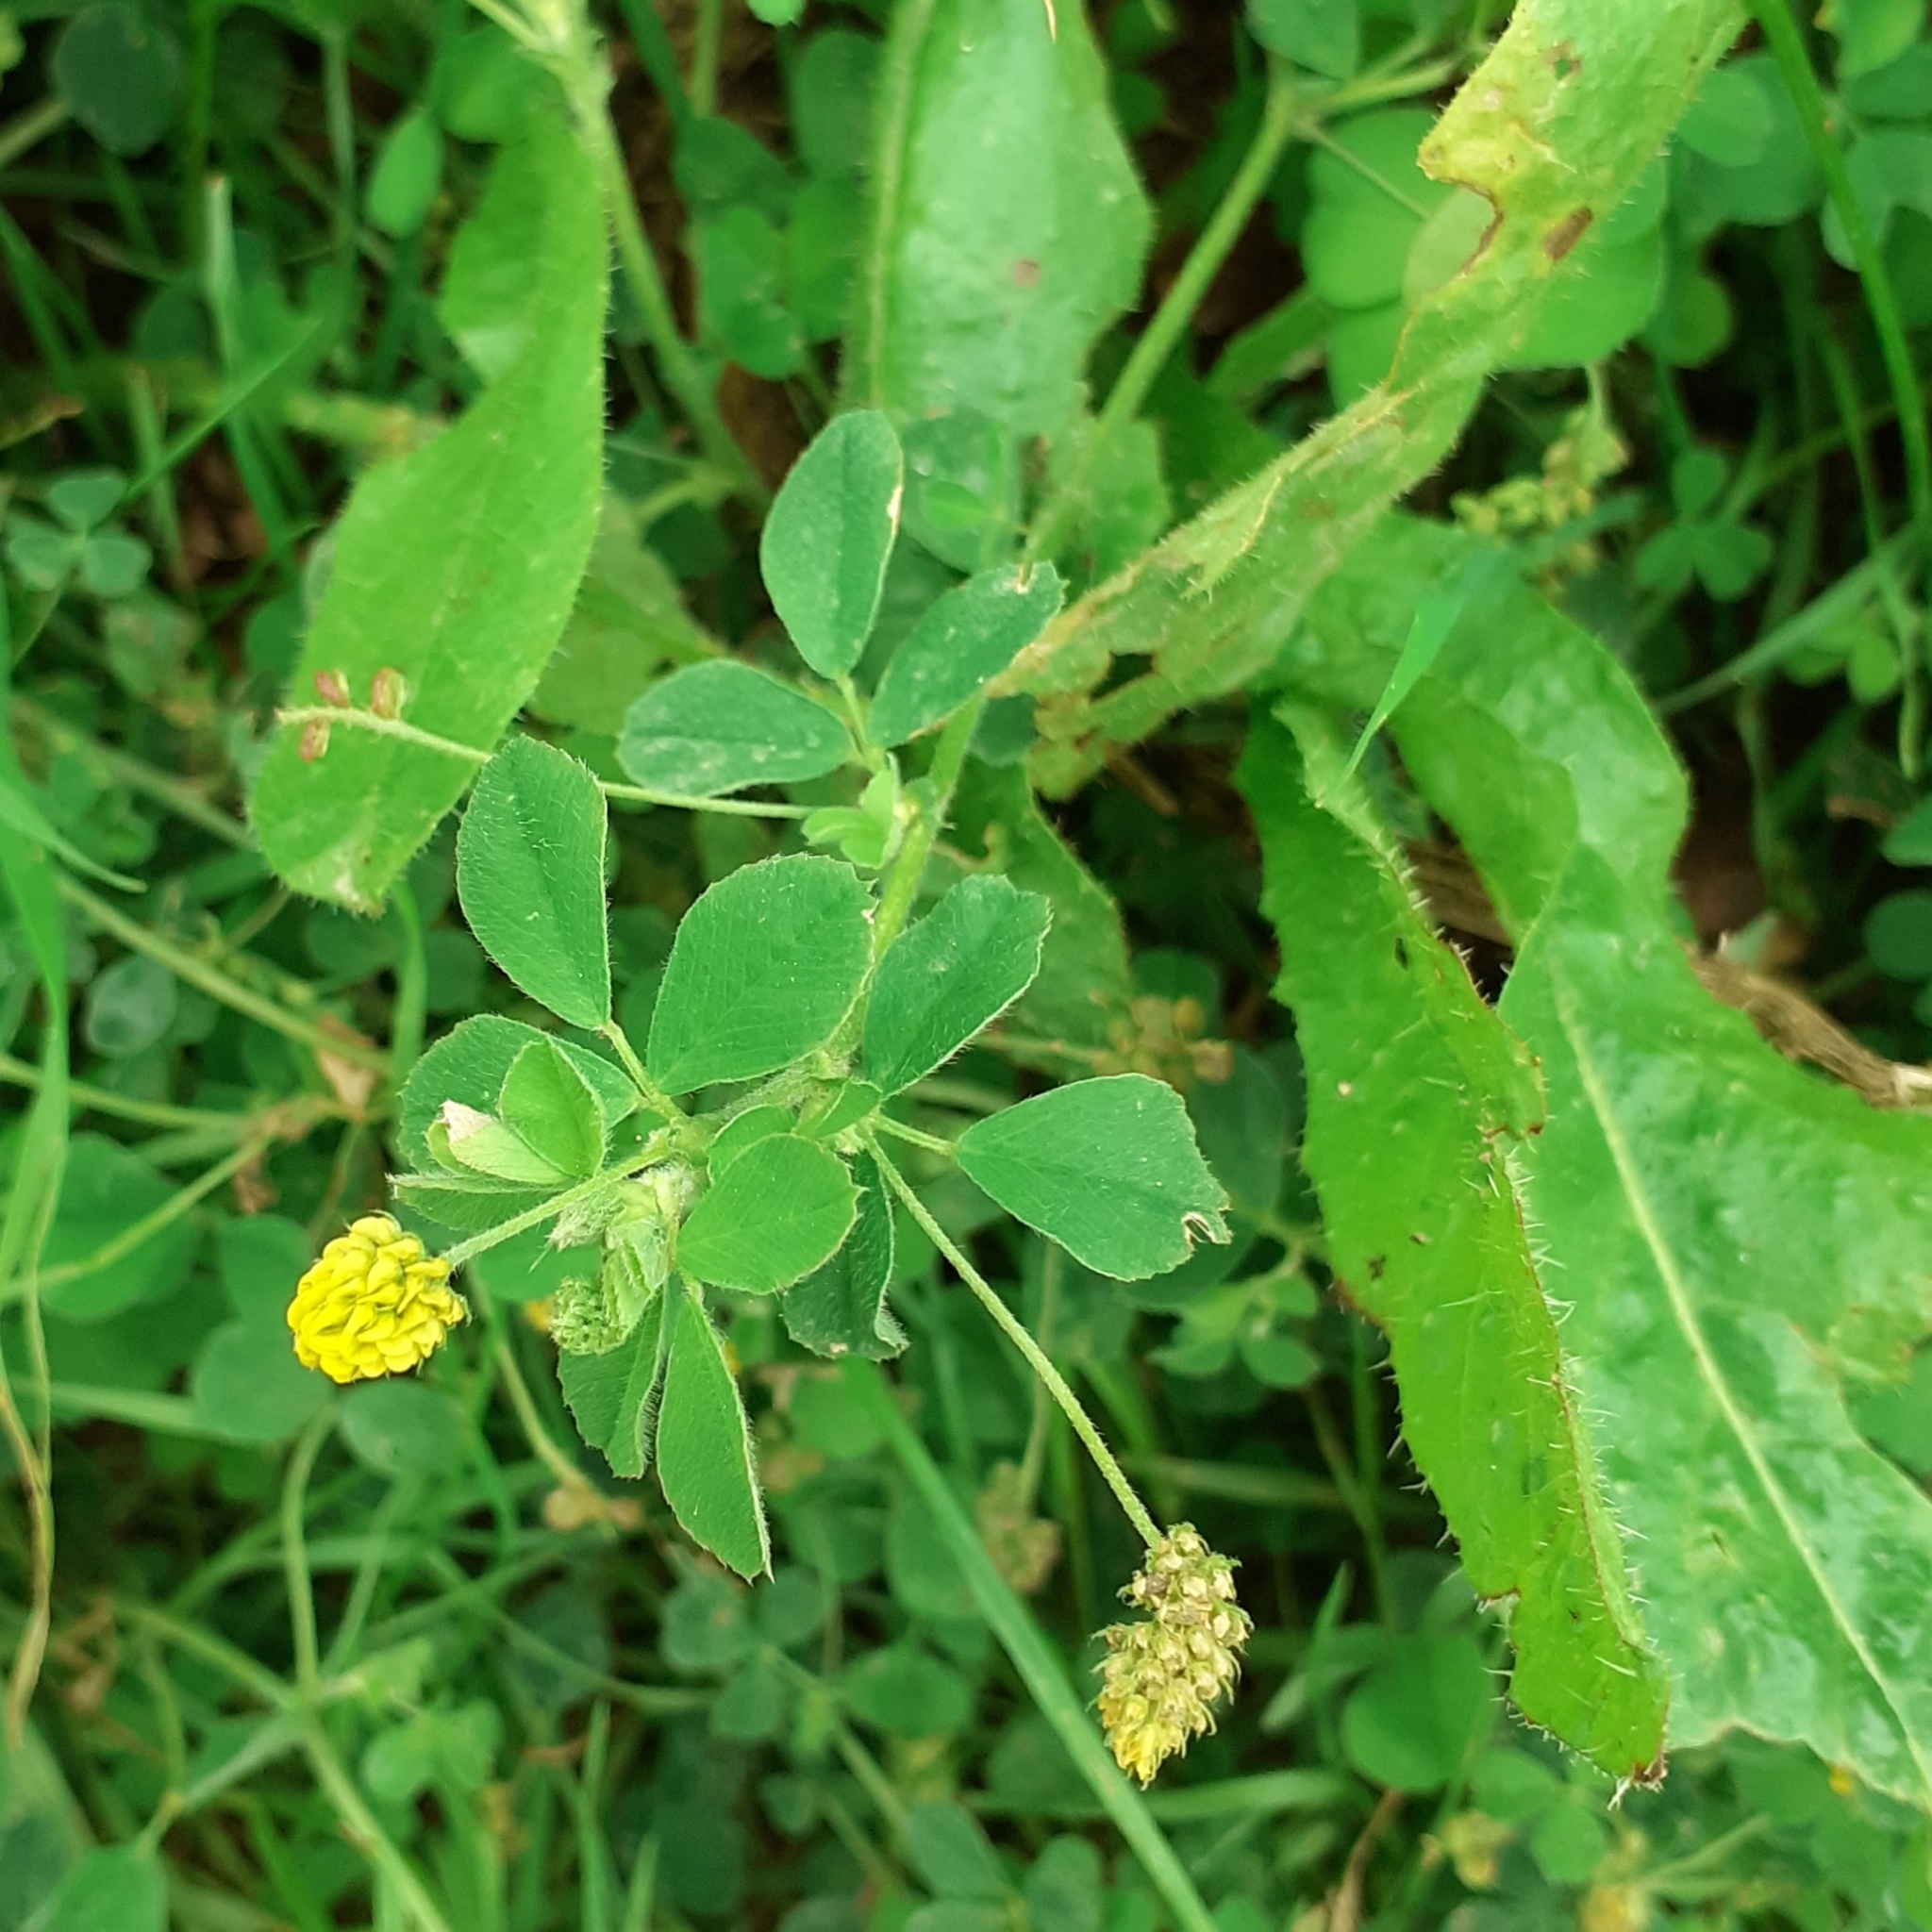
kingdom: Plantae
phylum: Tracheophyta
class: Magnoliopsida
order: Fabales
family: Fabaceae
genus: Medicago
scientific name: Medicago lupulina
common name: Black medick
